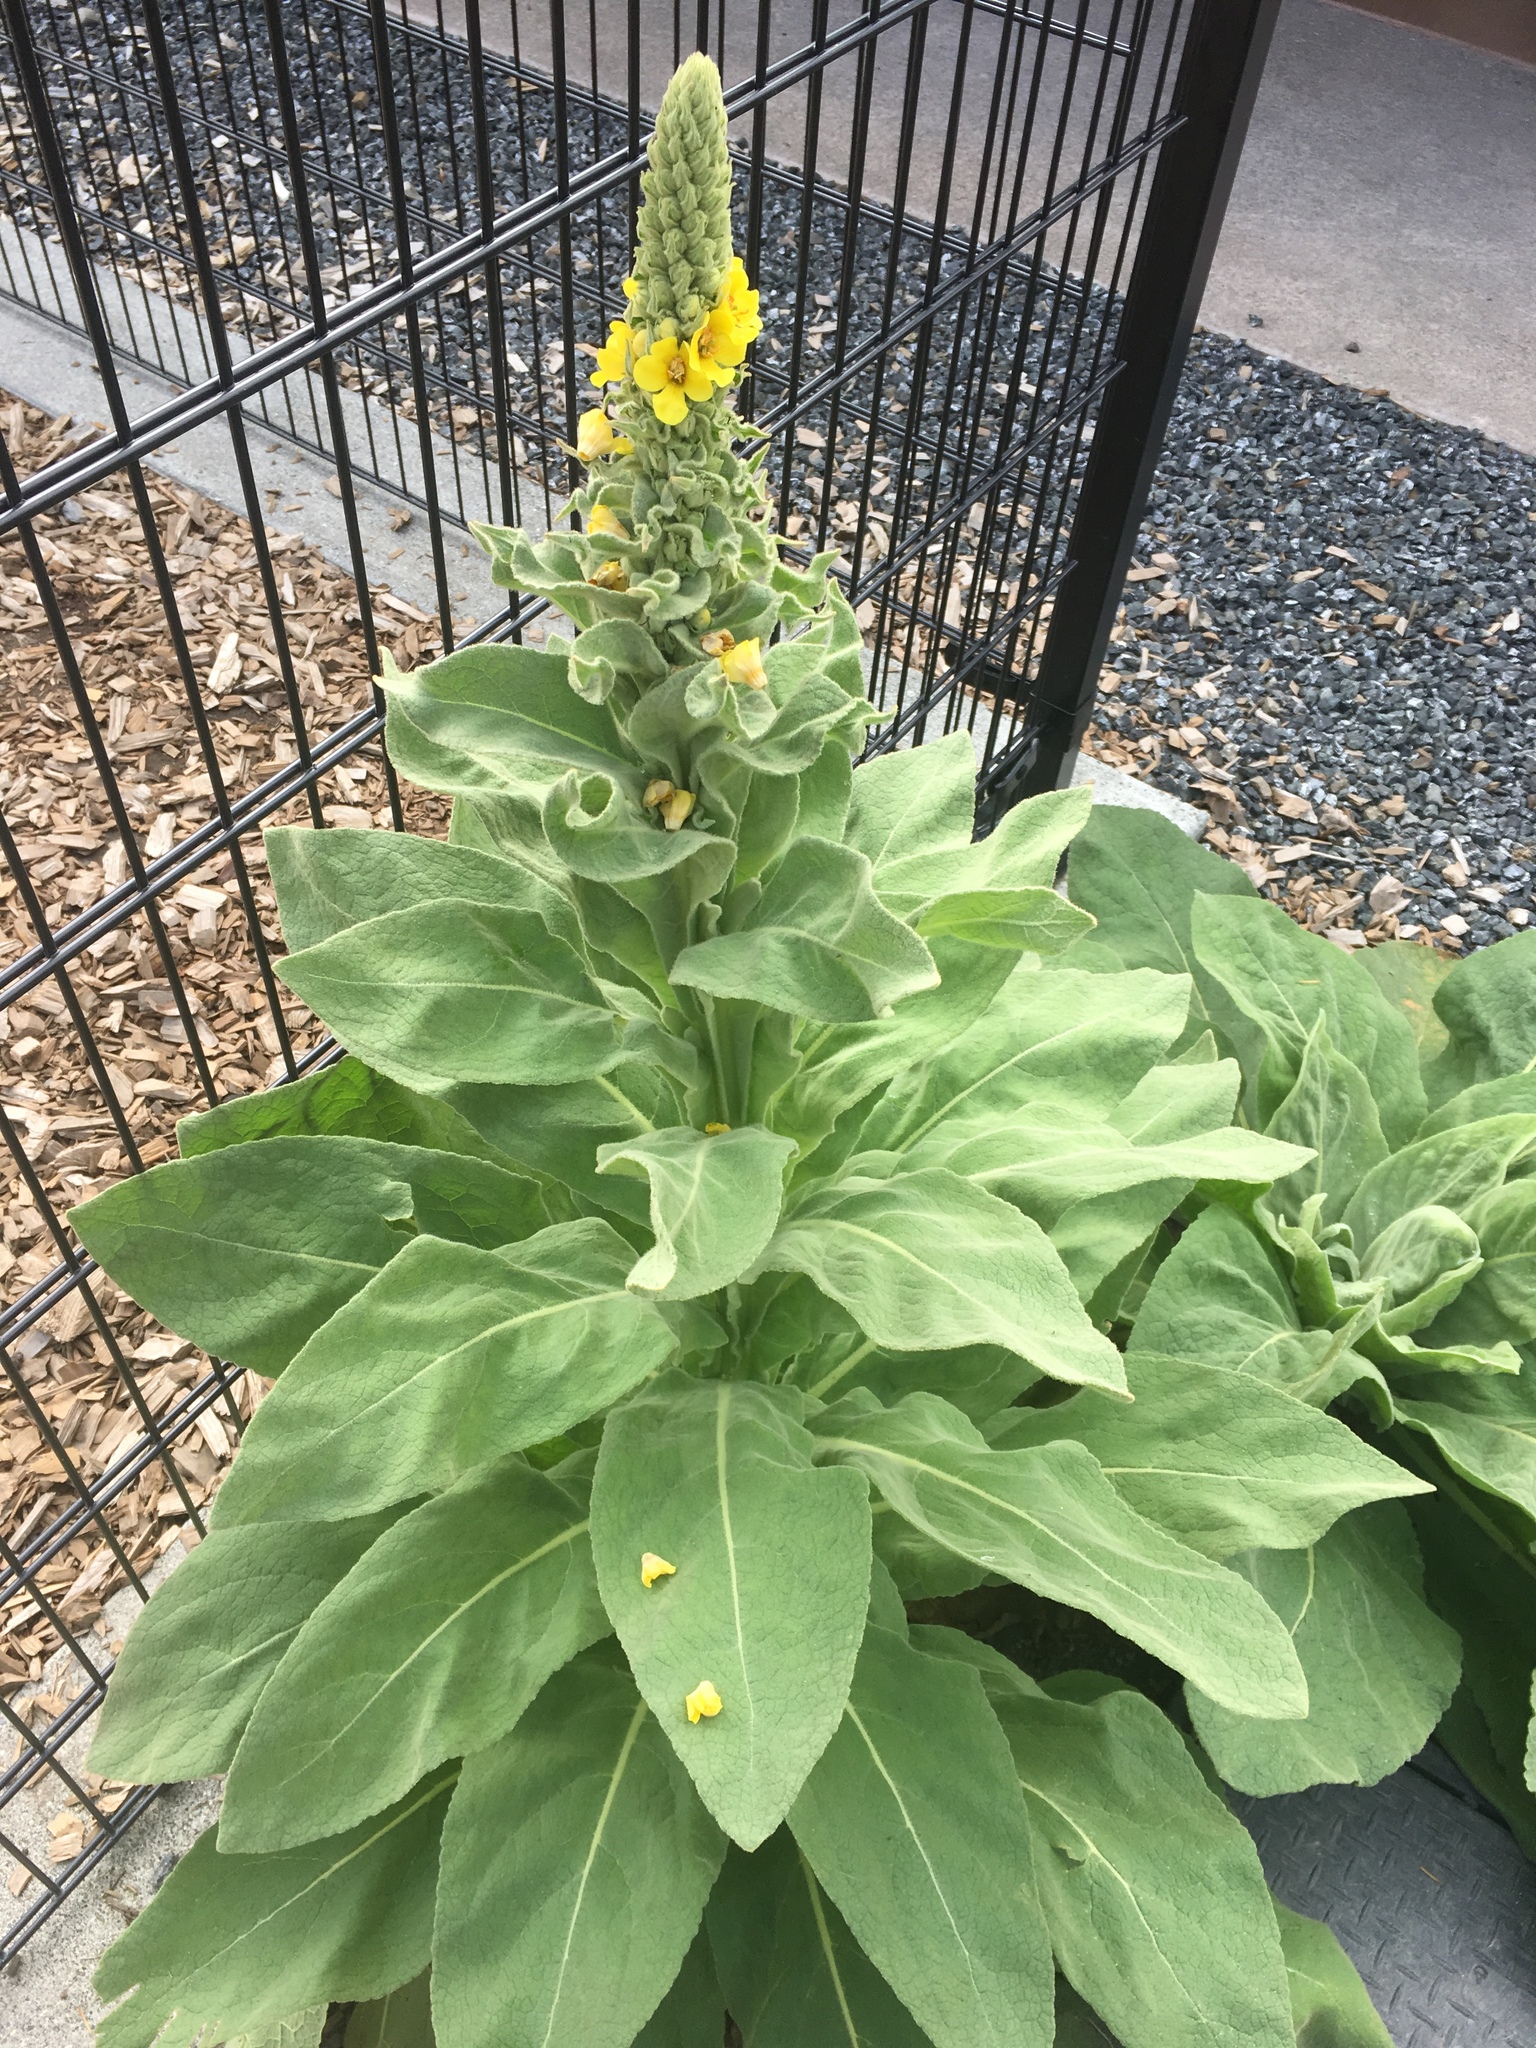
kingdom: Plantae
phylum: Tracheophyta
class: Magnoliopsida
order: Lamiales
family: Scrophulariaceae
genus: Verbascum
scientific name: Verbascum thapsus
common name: Common mullein
